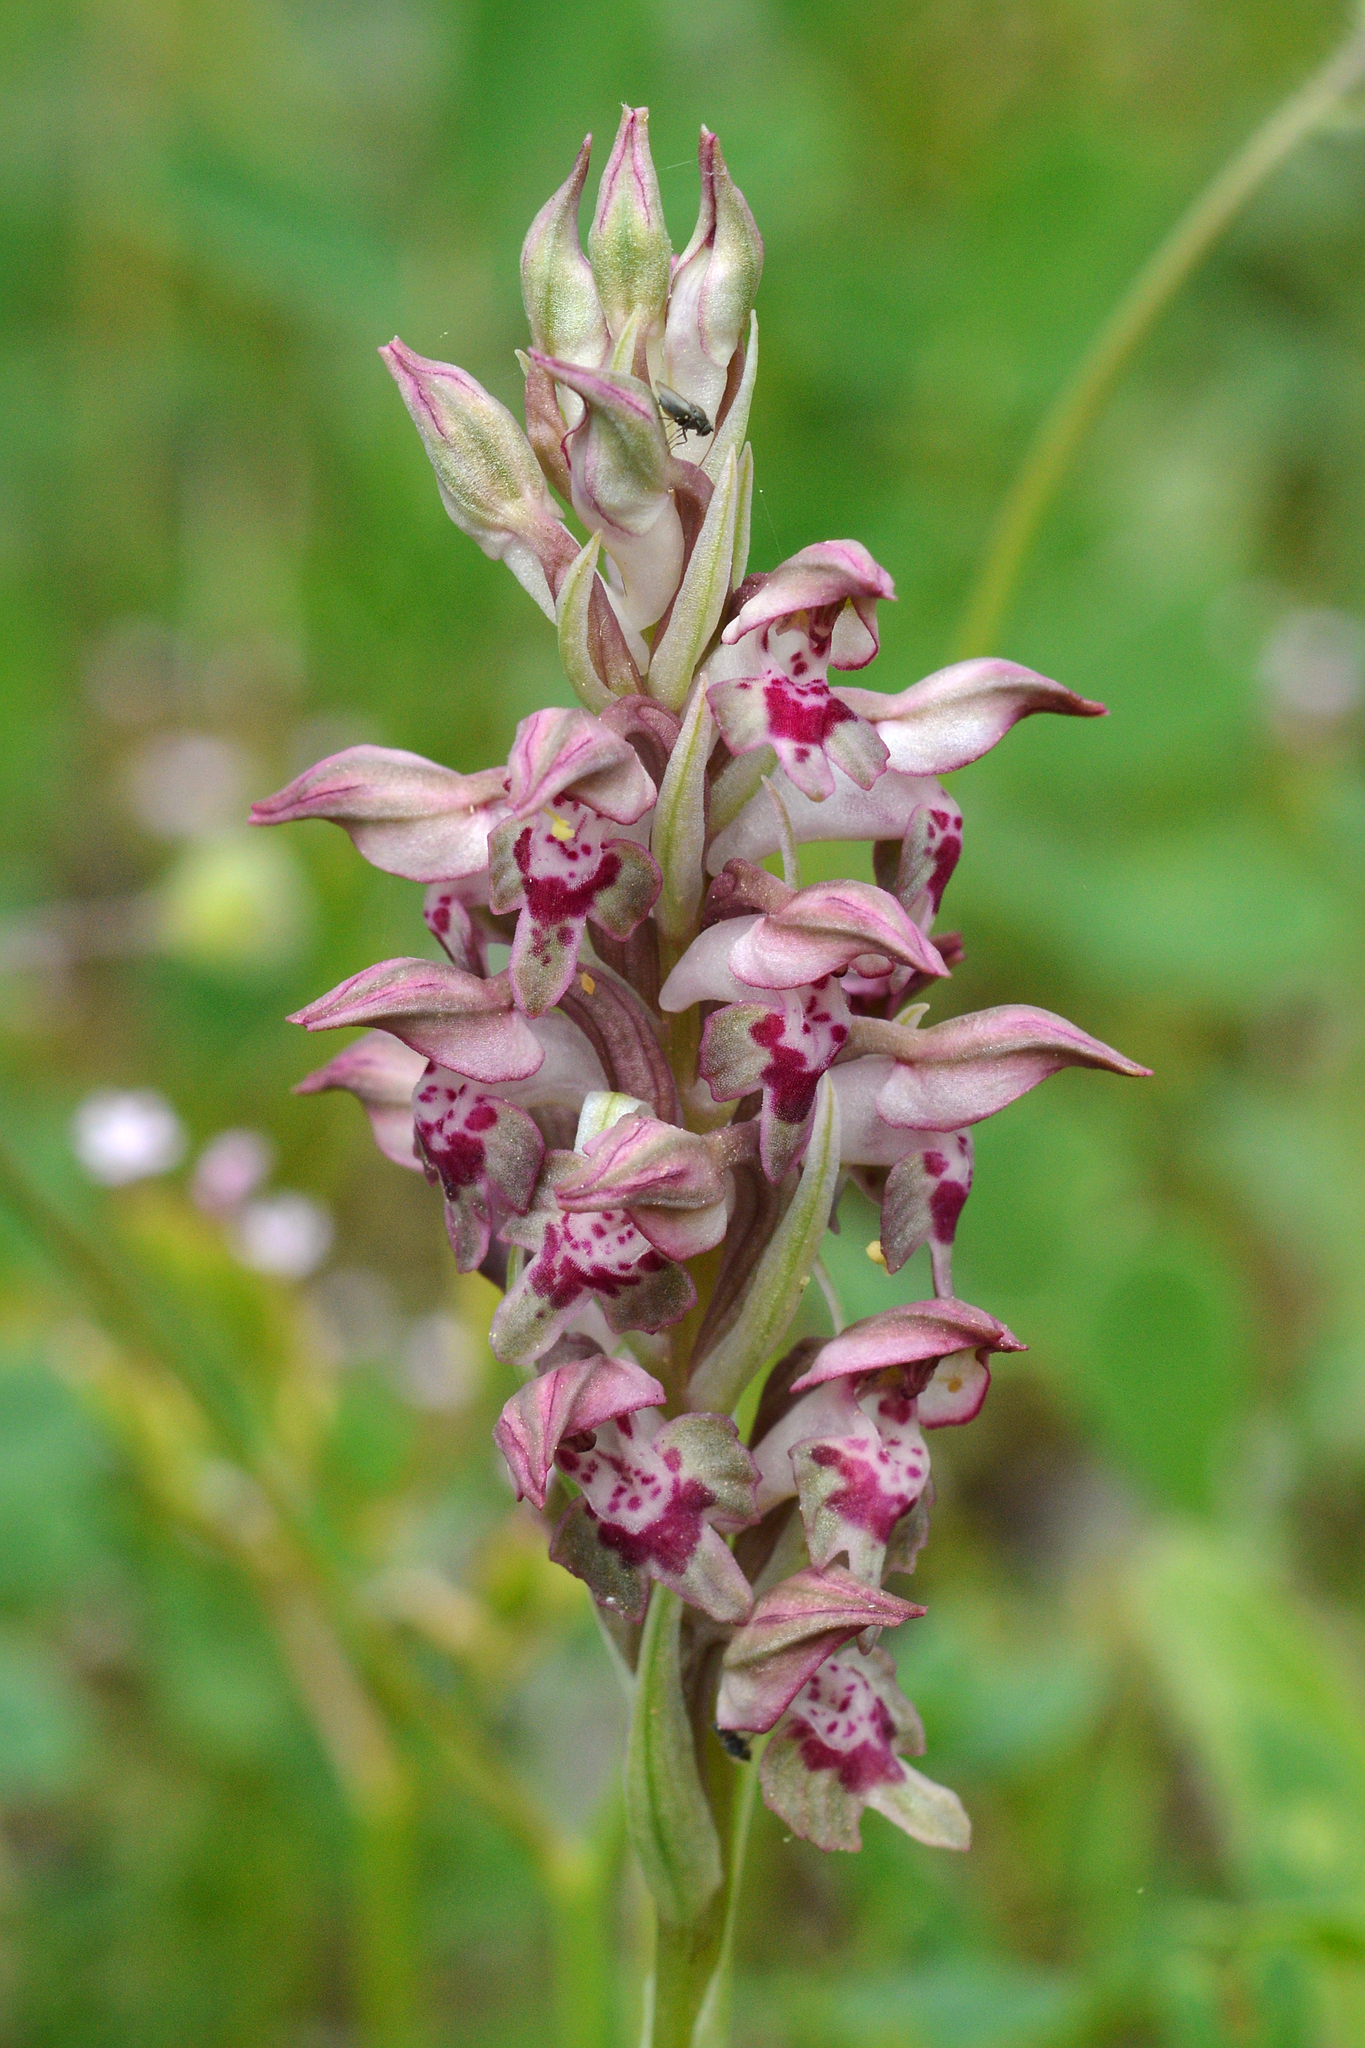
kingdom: Plantae
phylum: Tracheophyta
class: Liliopsida
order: Asparagales
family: Orchidaceae
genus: Anacamptis
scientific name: Anacamptis coriophora
